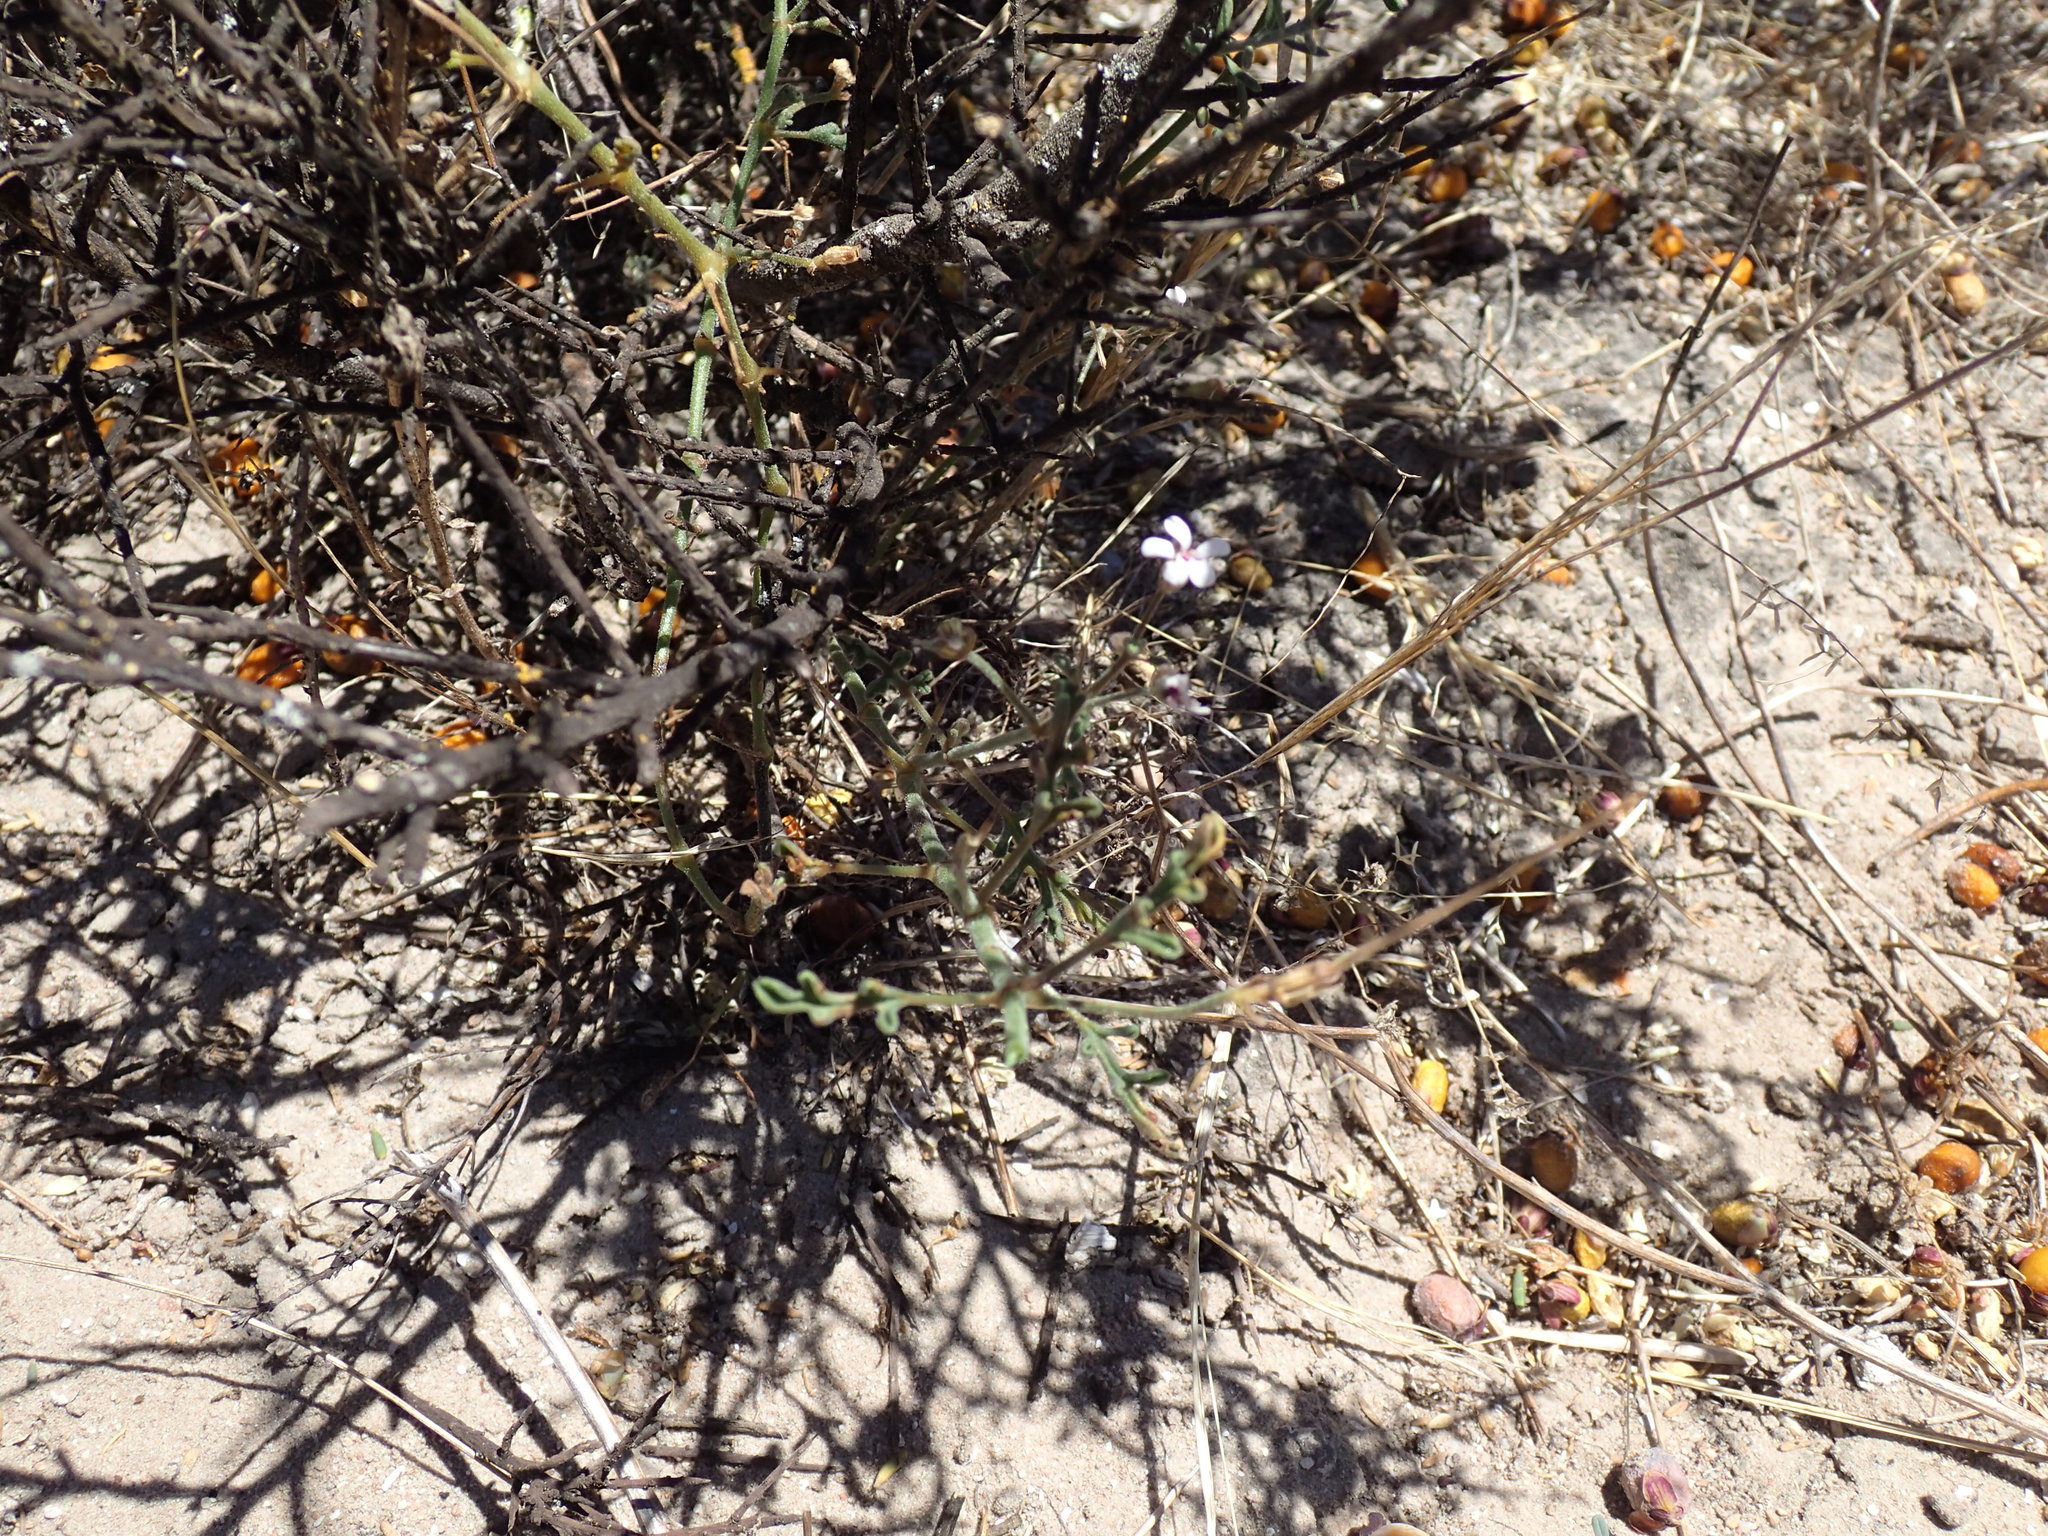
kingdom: Plantae
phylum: Tracheophyta
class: Magnoliopsida
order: Geraniales
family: Geraniaceae
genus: Pelargonium
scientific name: Pelargonium senecioides
